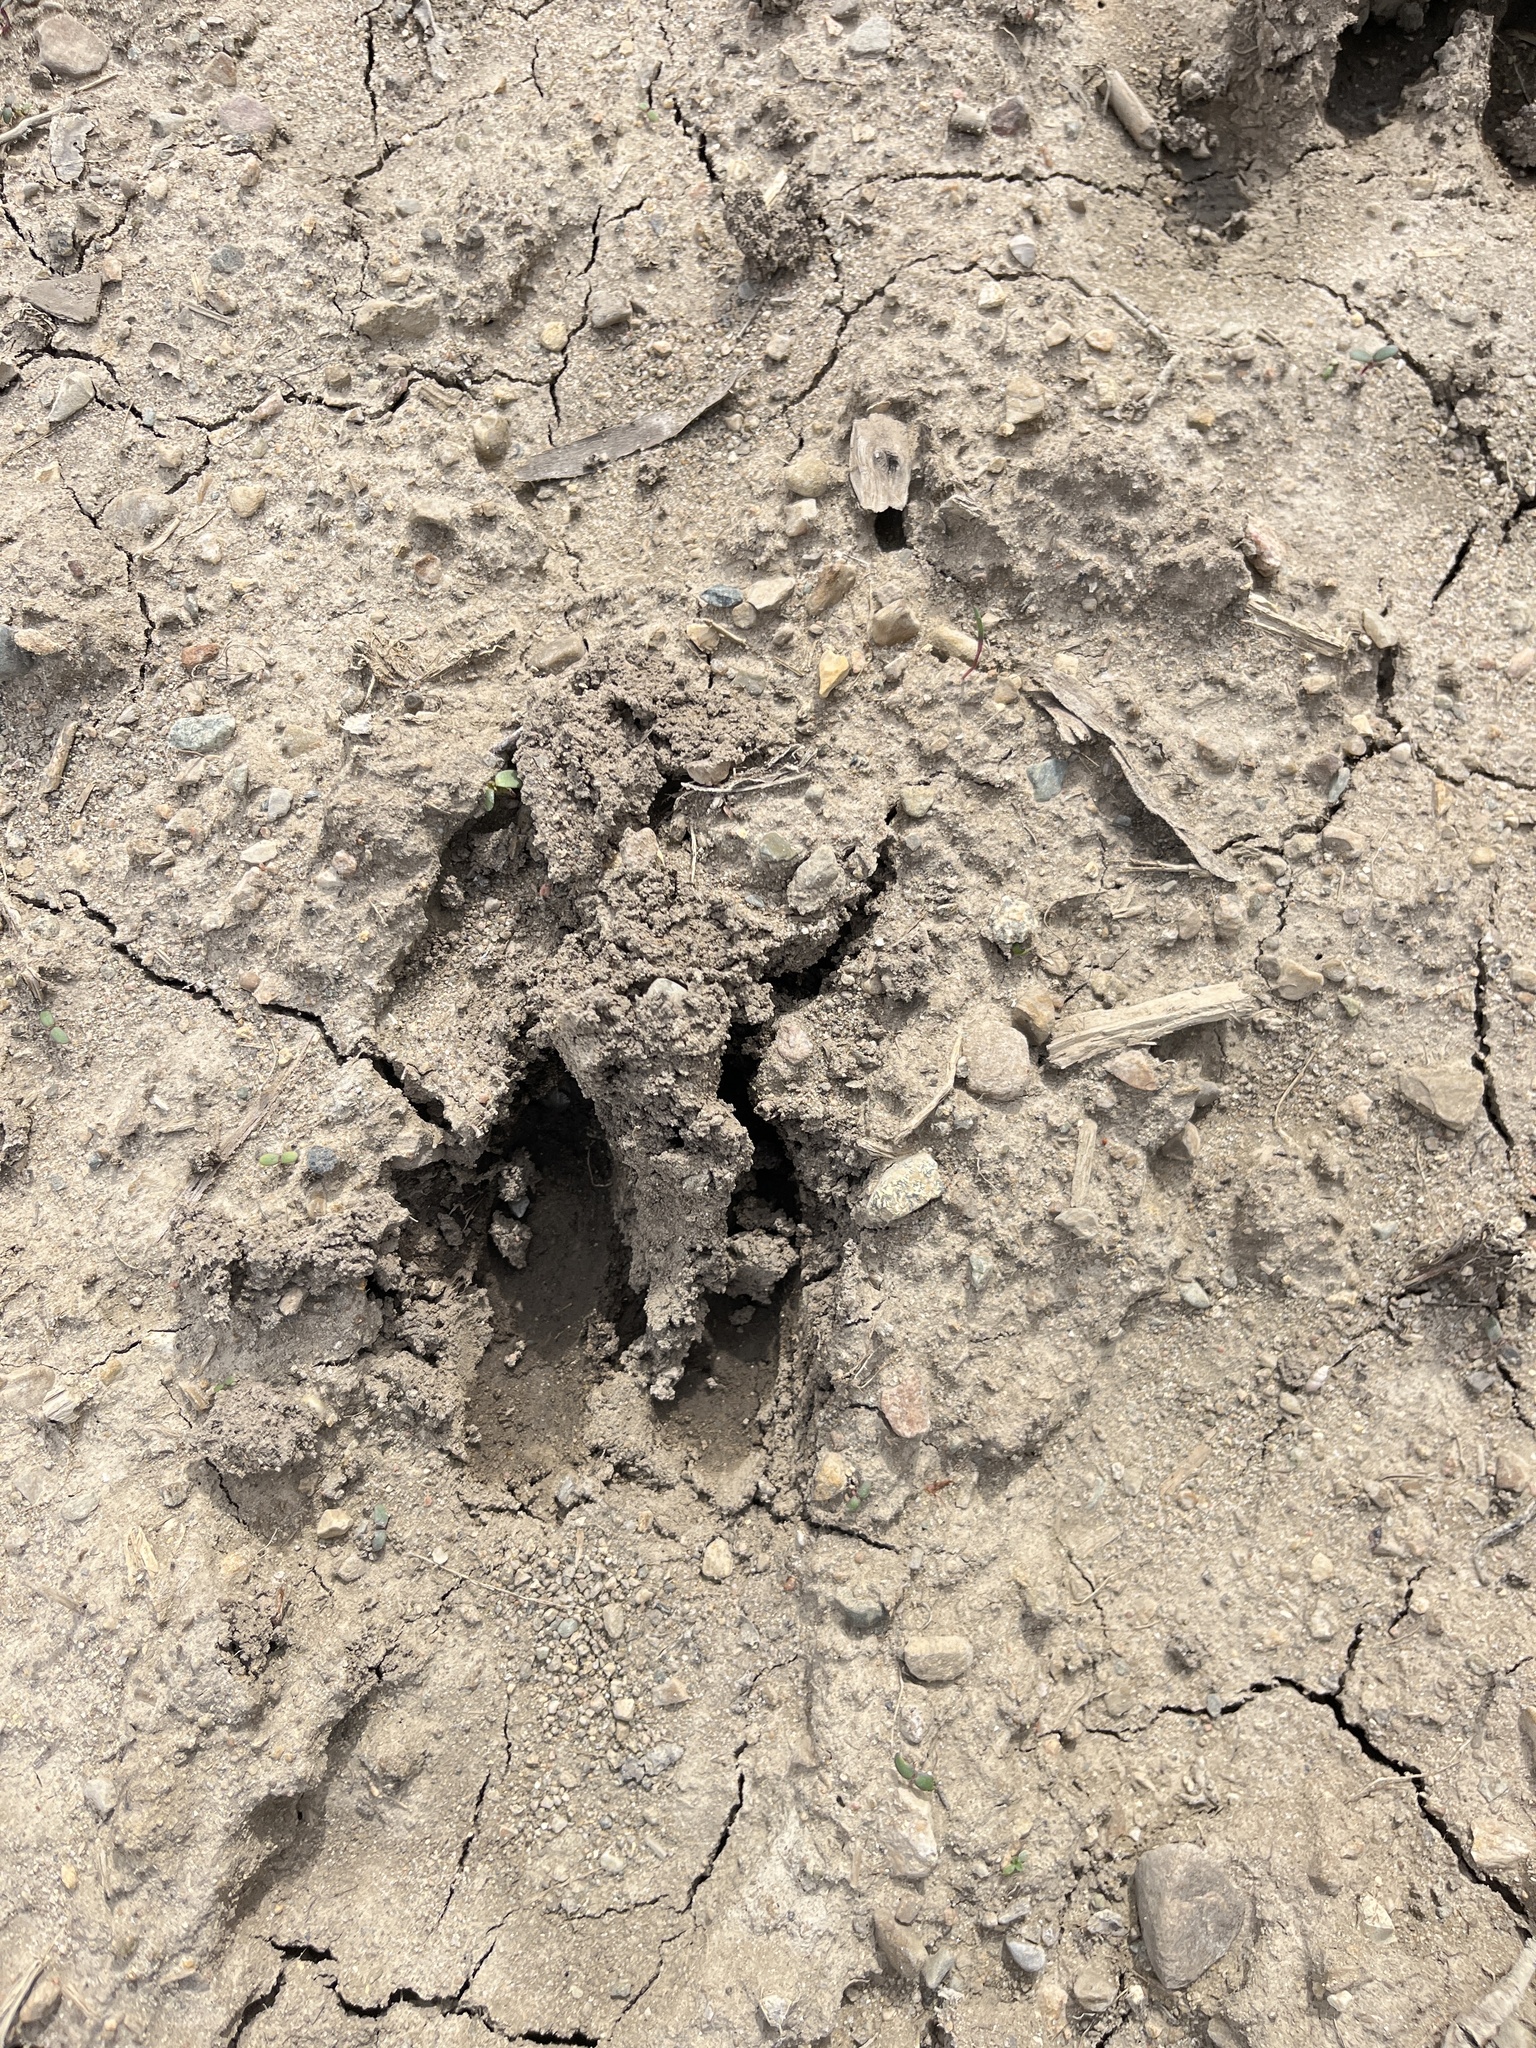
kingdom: Animalia
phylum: Chordata
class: Mammalia
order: Artiodactyla
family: Cervidae
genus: Odocoileus
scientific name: Odocoileus virginianus
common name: White-tailed deer
